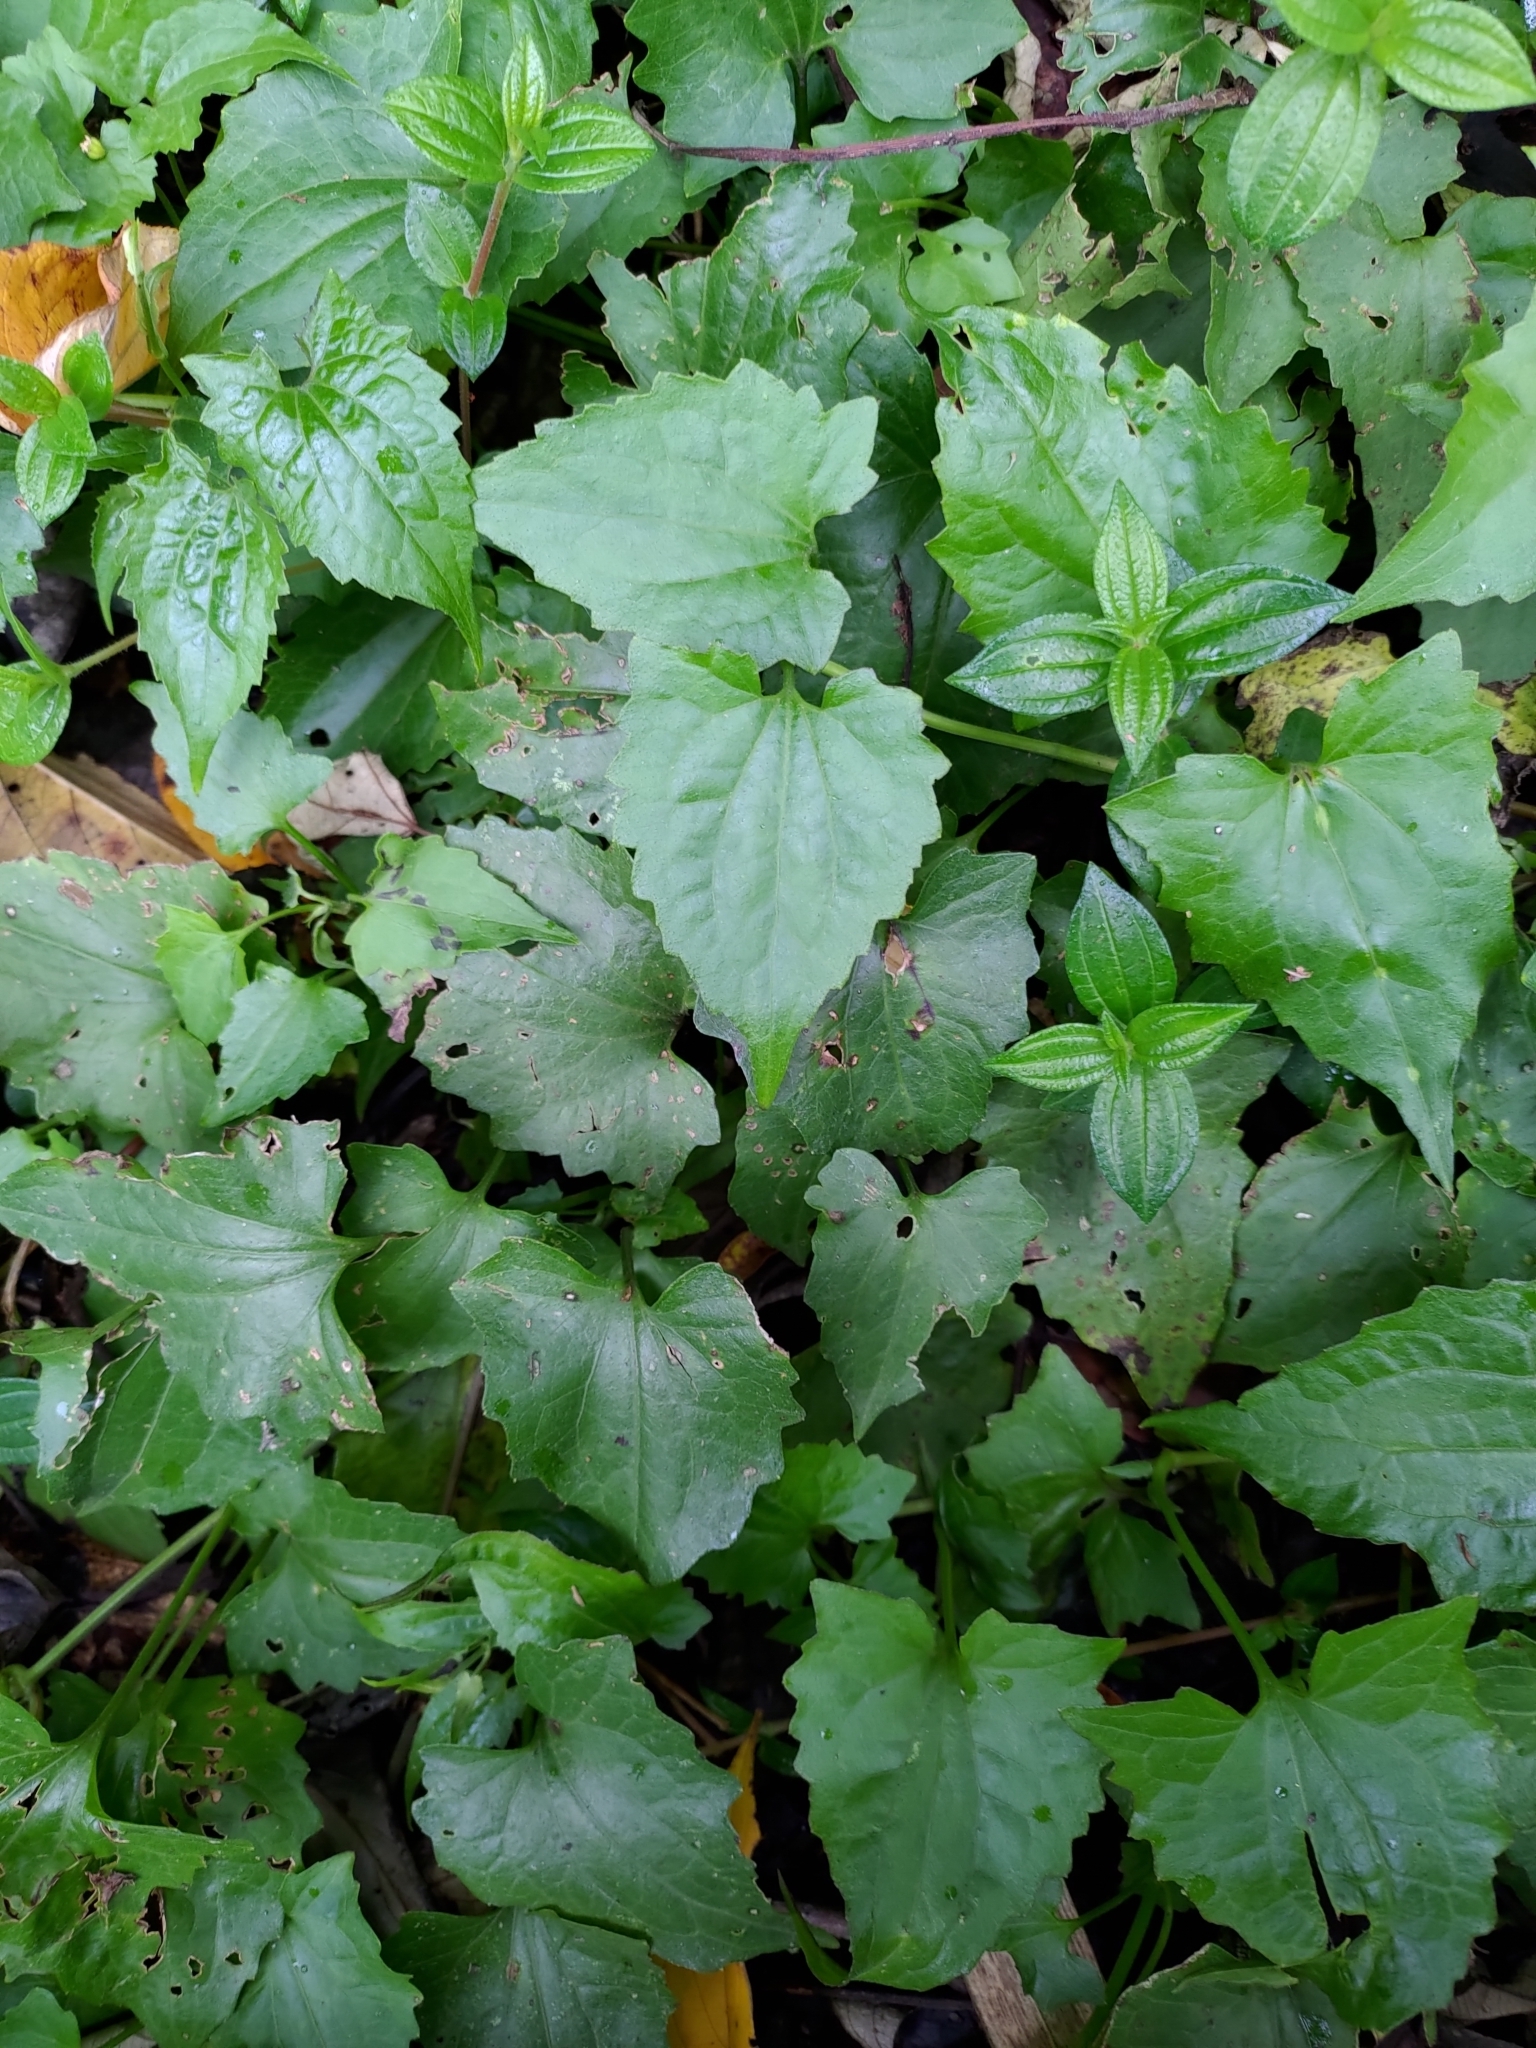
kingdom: Plantae
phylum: Tracheophyta
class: Magnoliopsida
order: Asterales
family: Asteraceae
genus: Mikania
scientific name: Mikania micrantha
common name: Mile-a-minute
